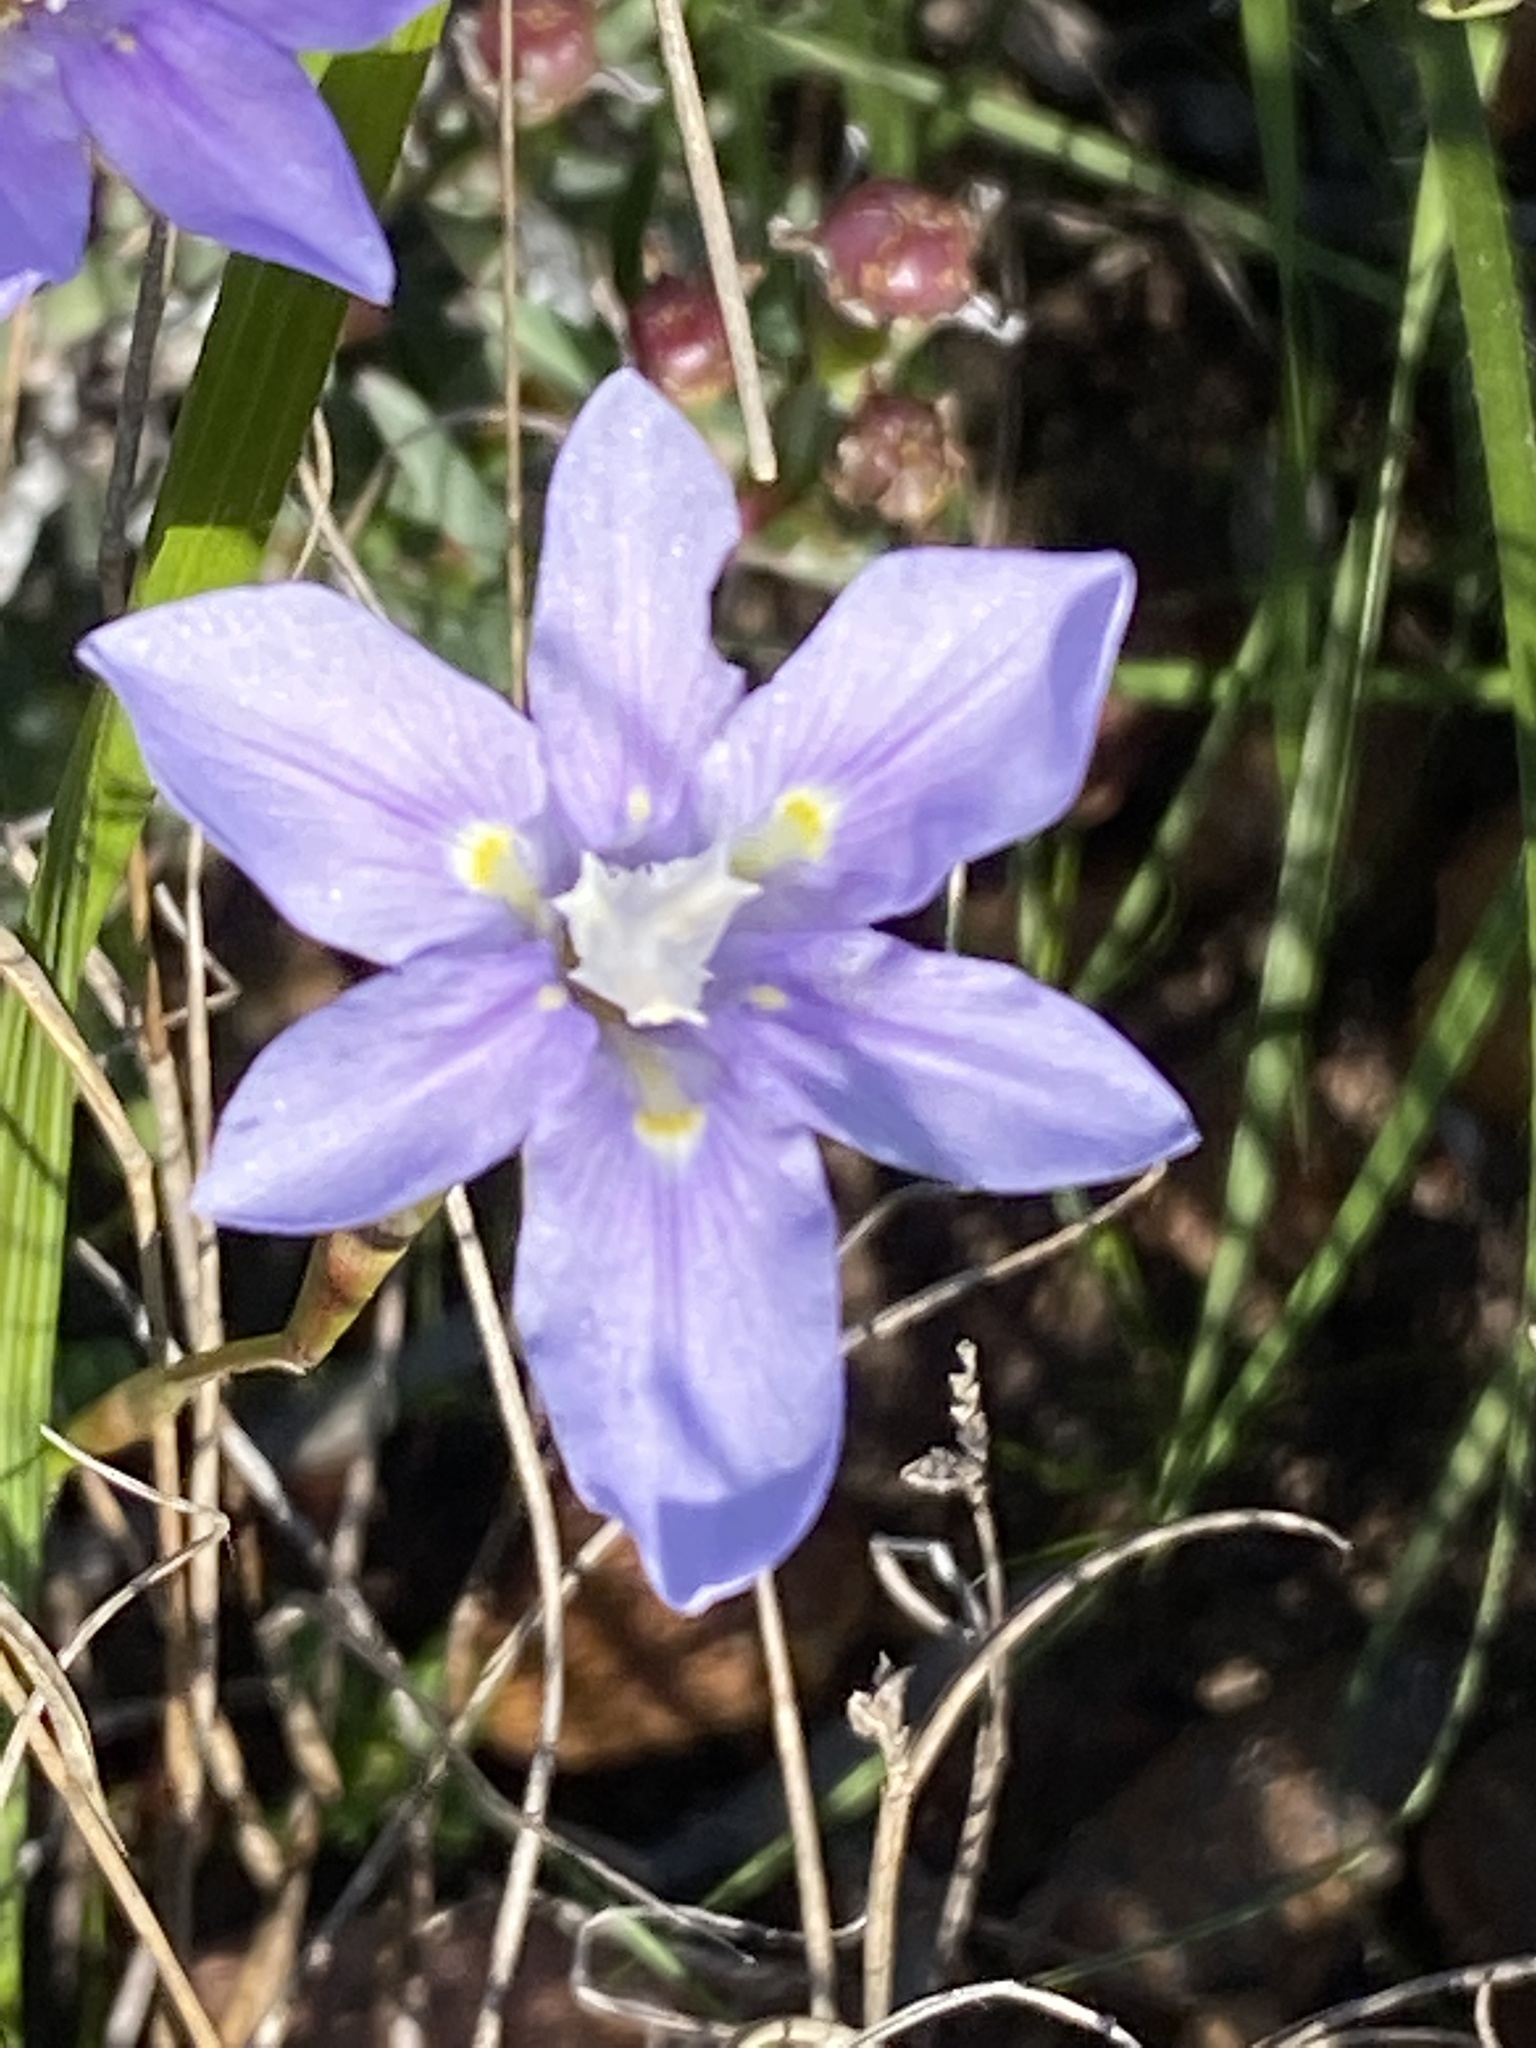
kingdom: Plantae
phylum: Tracheophyta
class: Liliopsida
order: Asparagales
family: Iridaceae
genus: Moraea
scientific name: Moraea polyanthos
